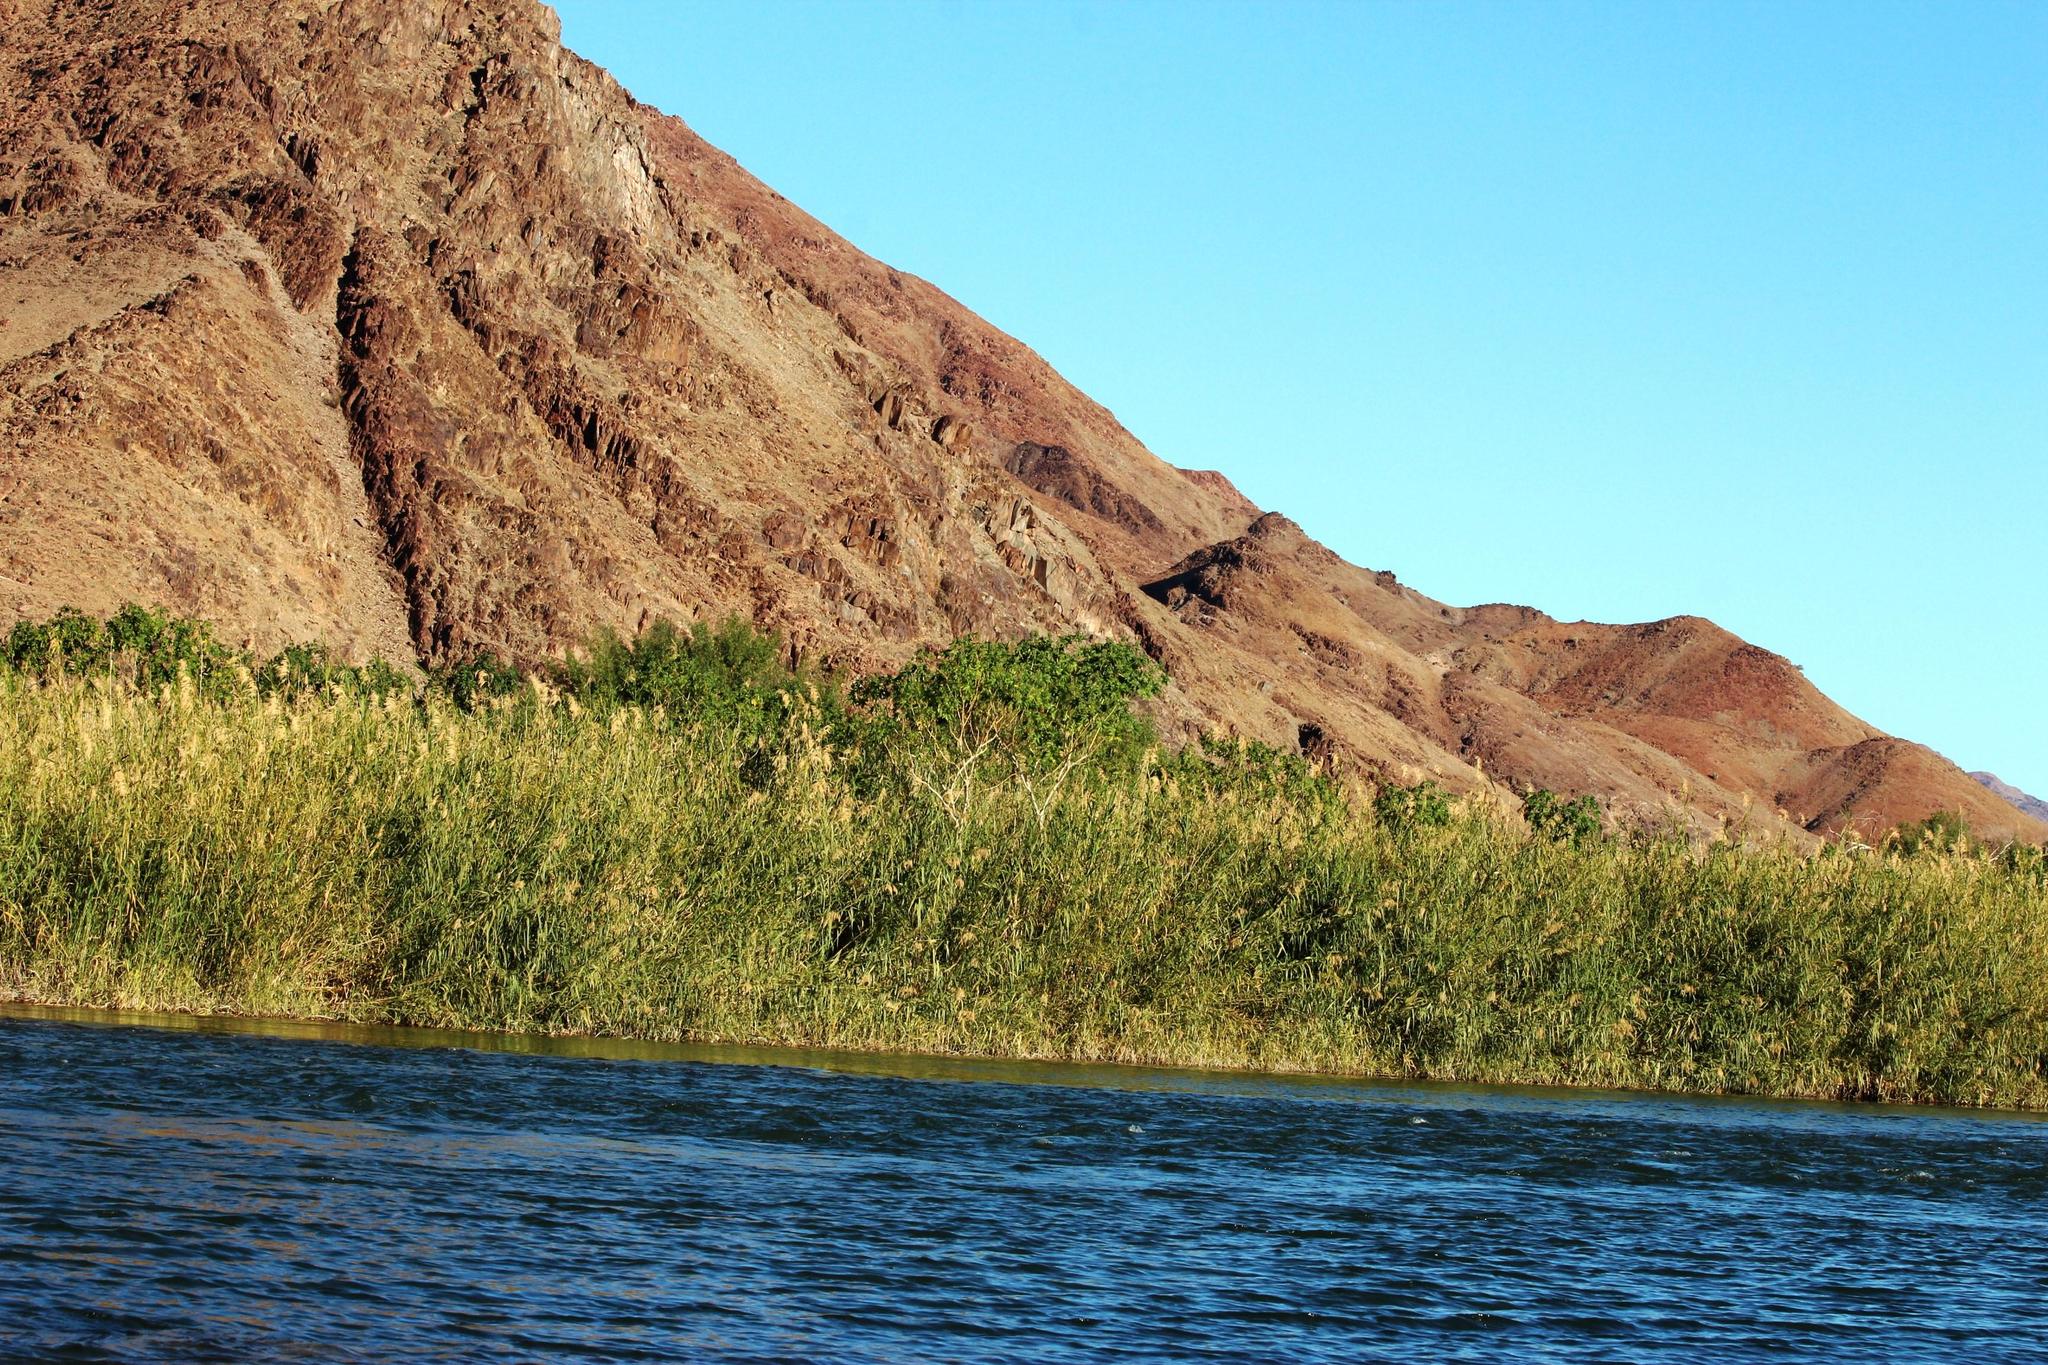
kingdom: Plantae
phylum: Tracheophyta
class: Magnoliopsida
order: Malpighiales
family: Euphorbiaceae
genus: Ricinus
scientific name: Ricinus communis
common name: Castor-oil-plant
